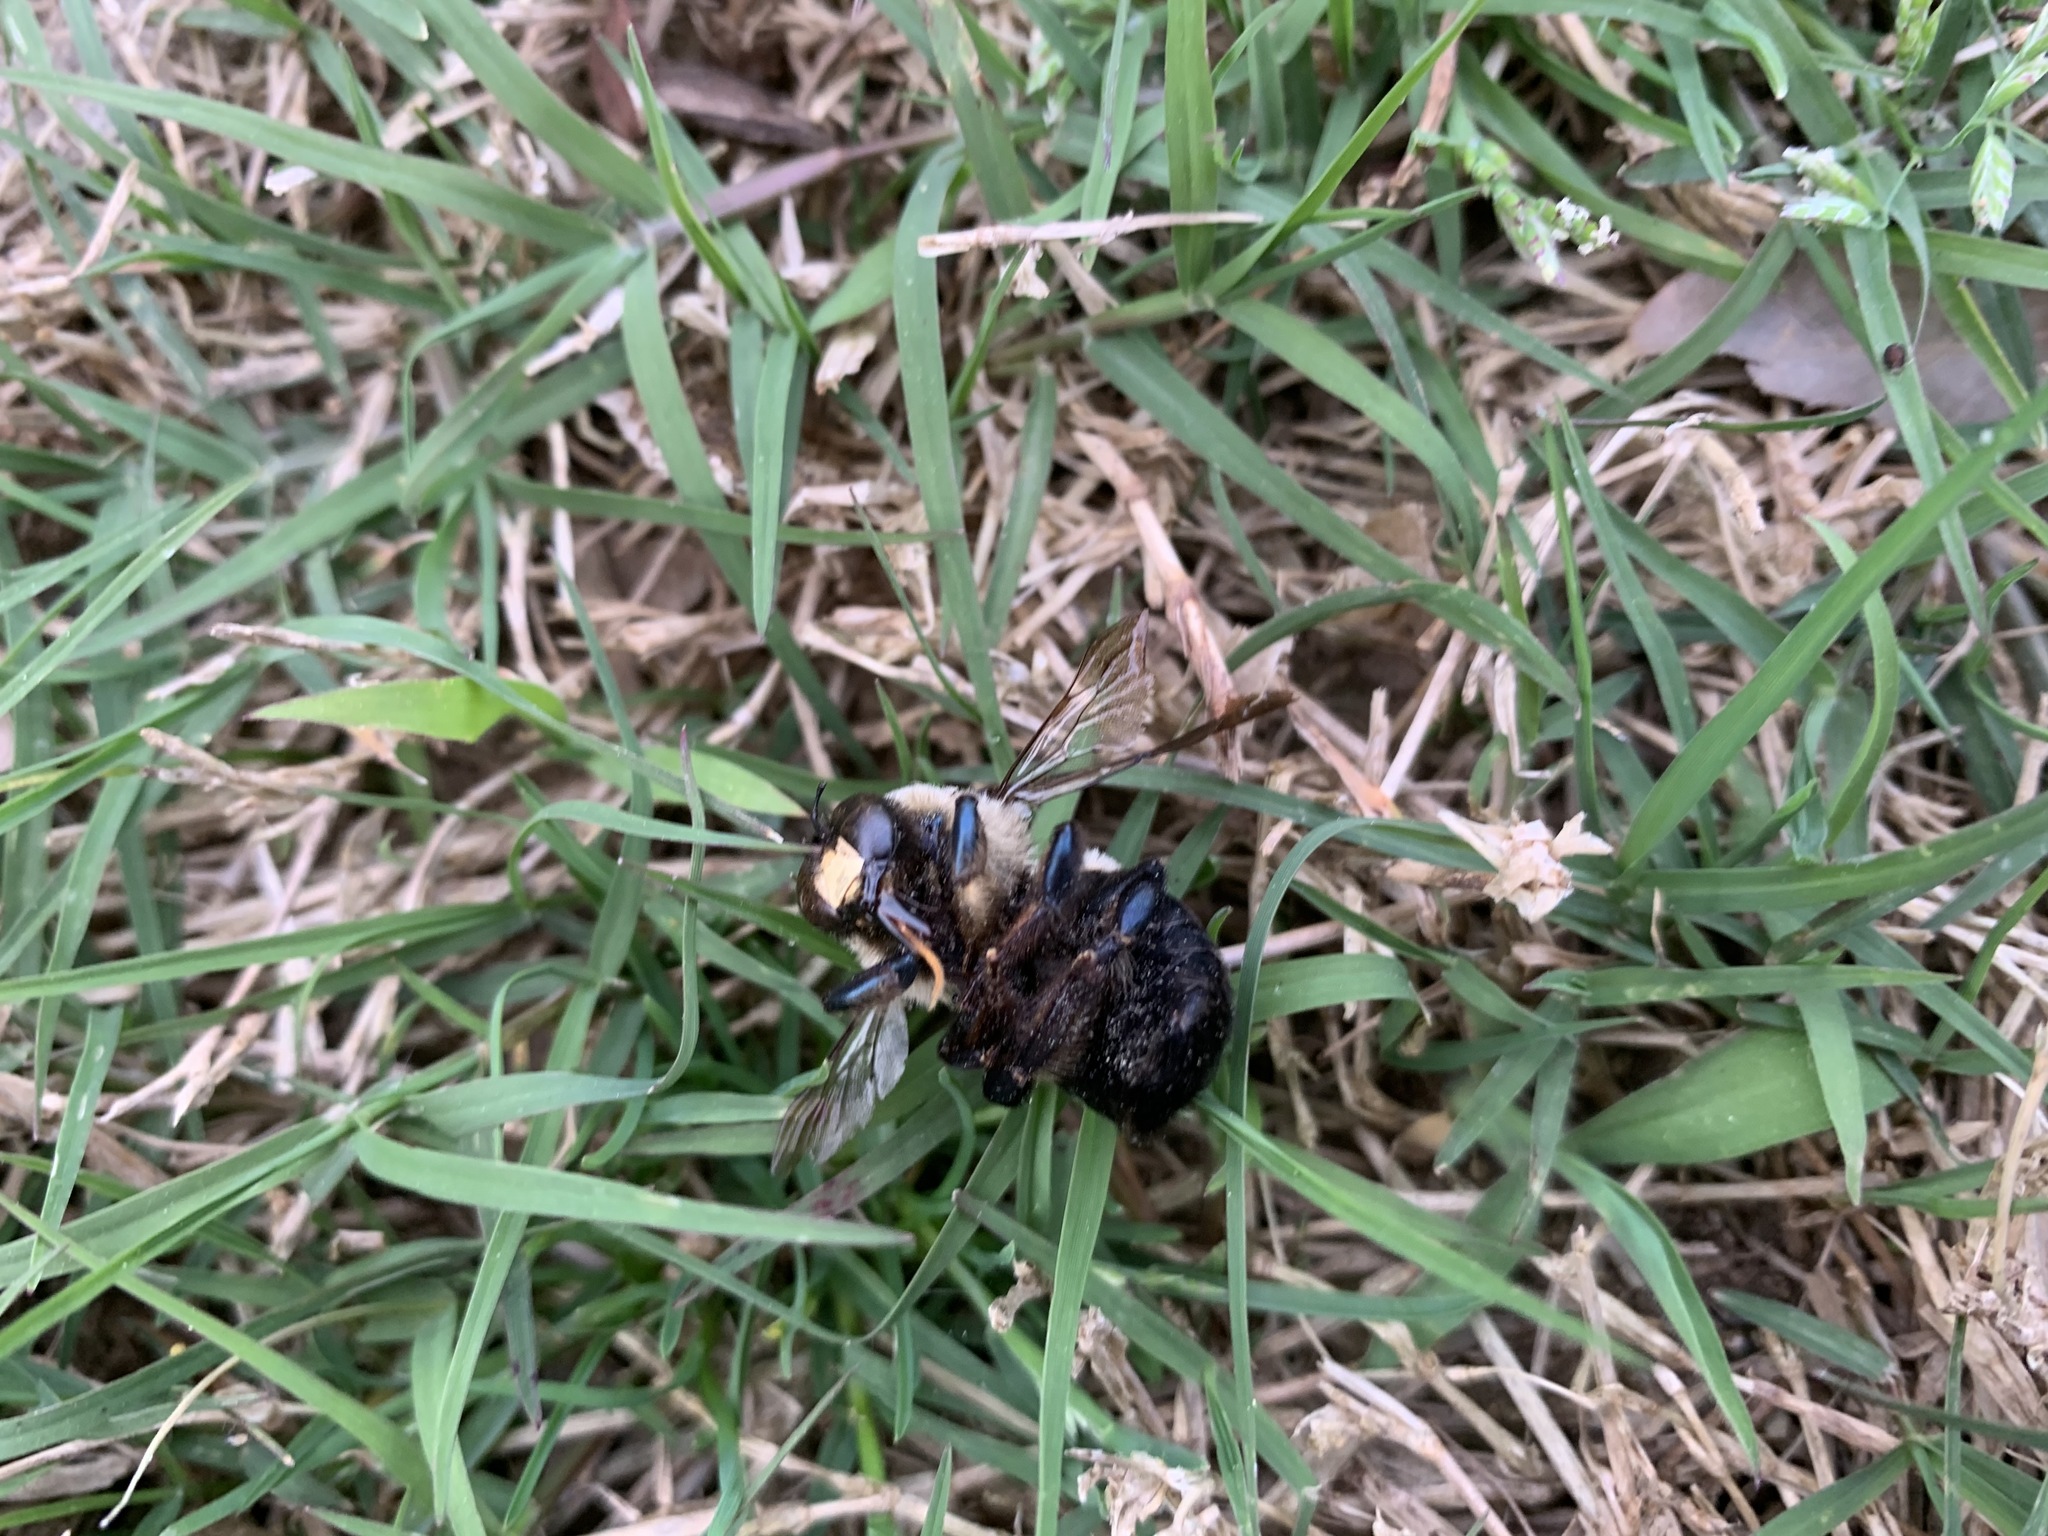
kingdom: Animalia
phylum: Arthropoda
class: Insecta
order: Hymenoptera
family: Apidae
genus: Xylocopa
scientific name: Xylocopa virginica
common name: Carpenter bee
